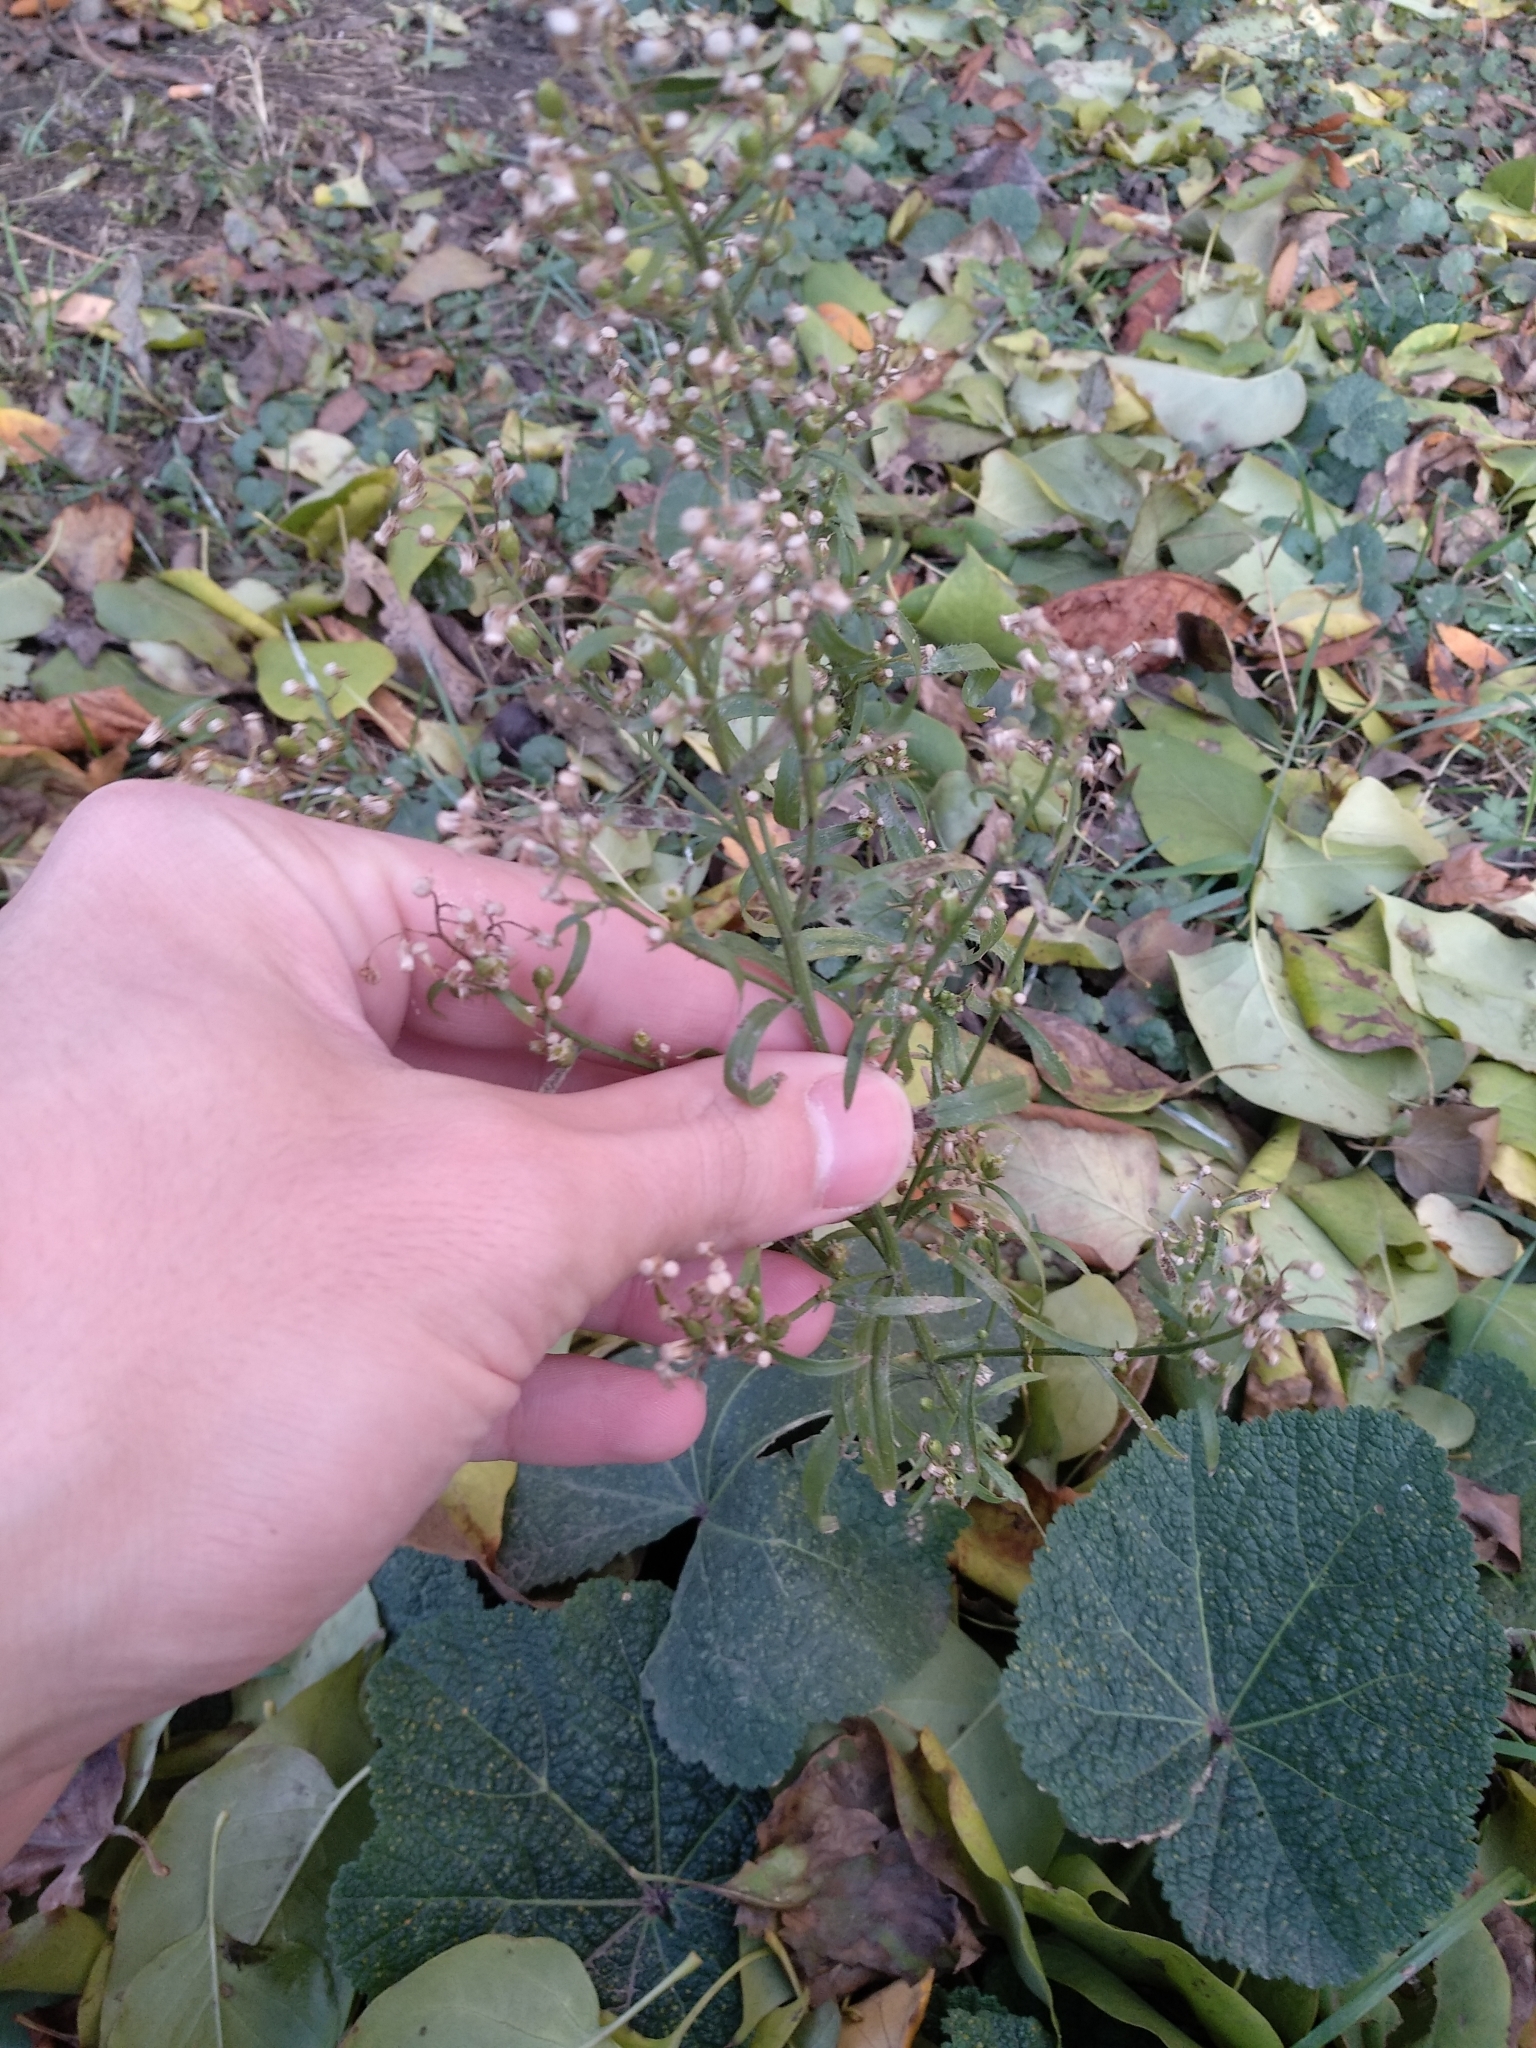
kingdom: Plantae
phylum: Tracheophyta
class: Magnoliopsida
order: Asterales
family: Asteraceae
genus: Erigeron
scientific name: Erigeron canadensis
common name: Canadian fleabane
